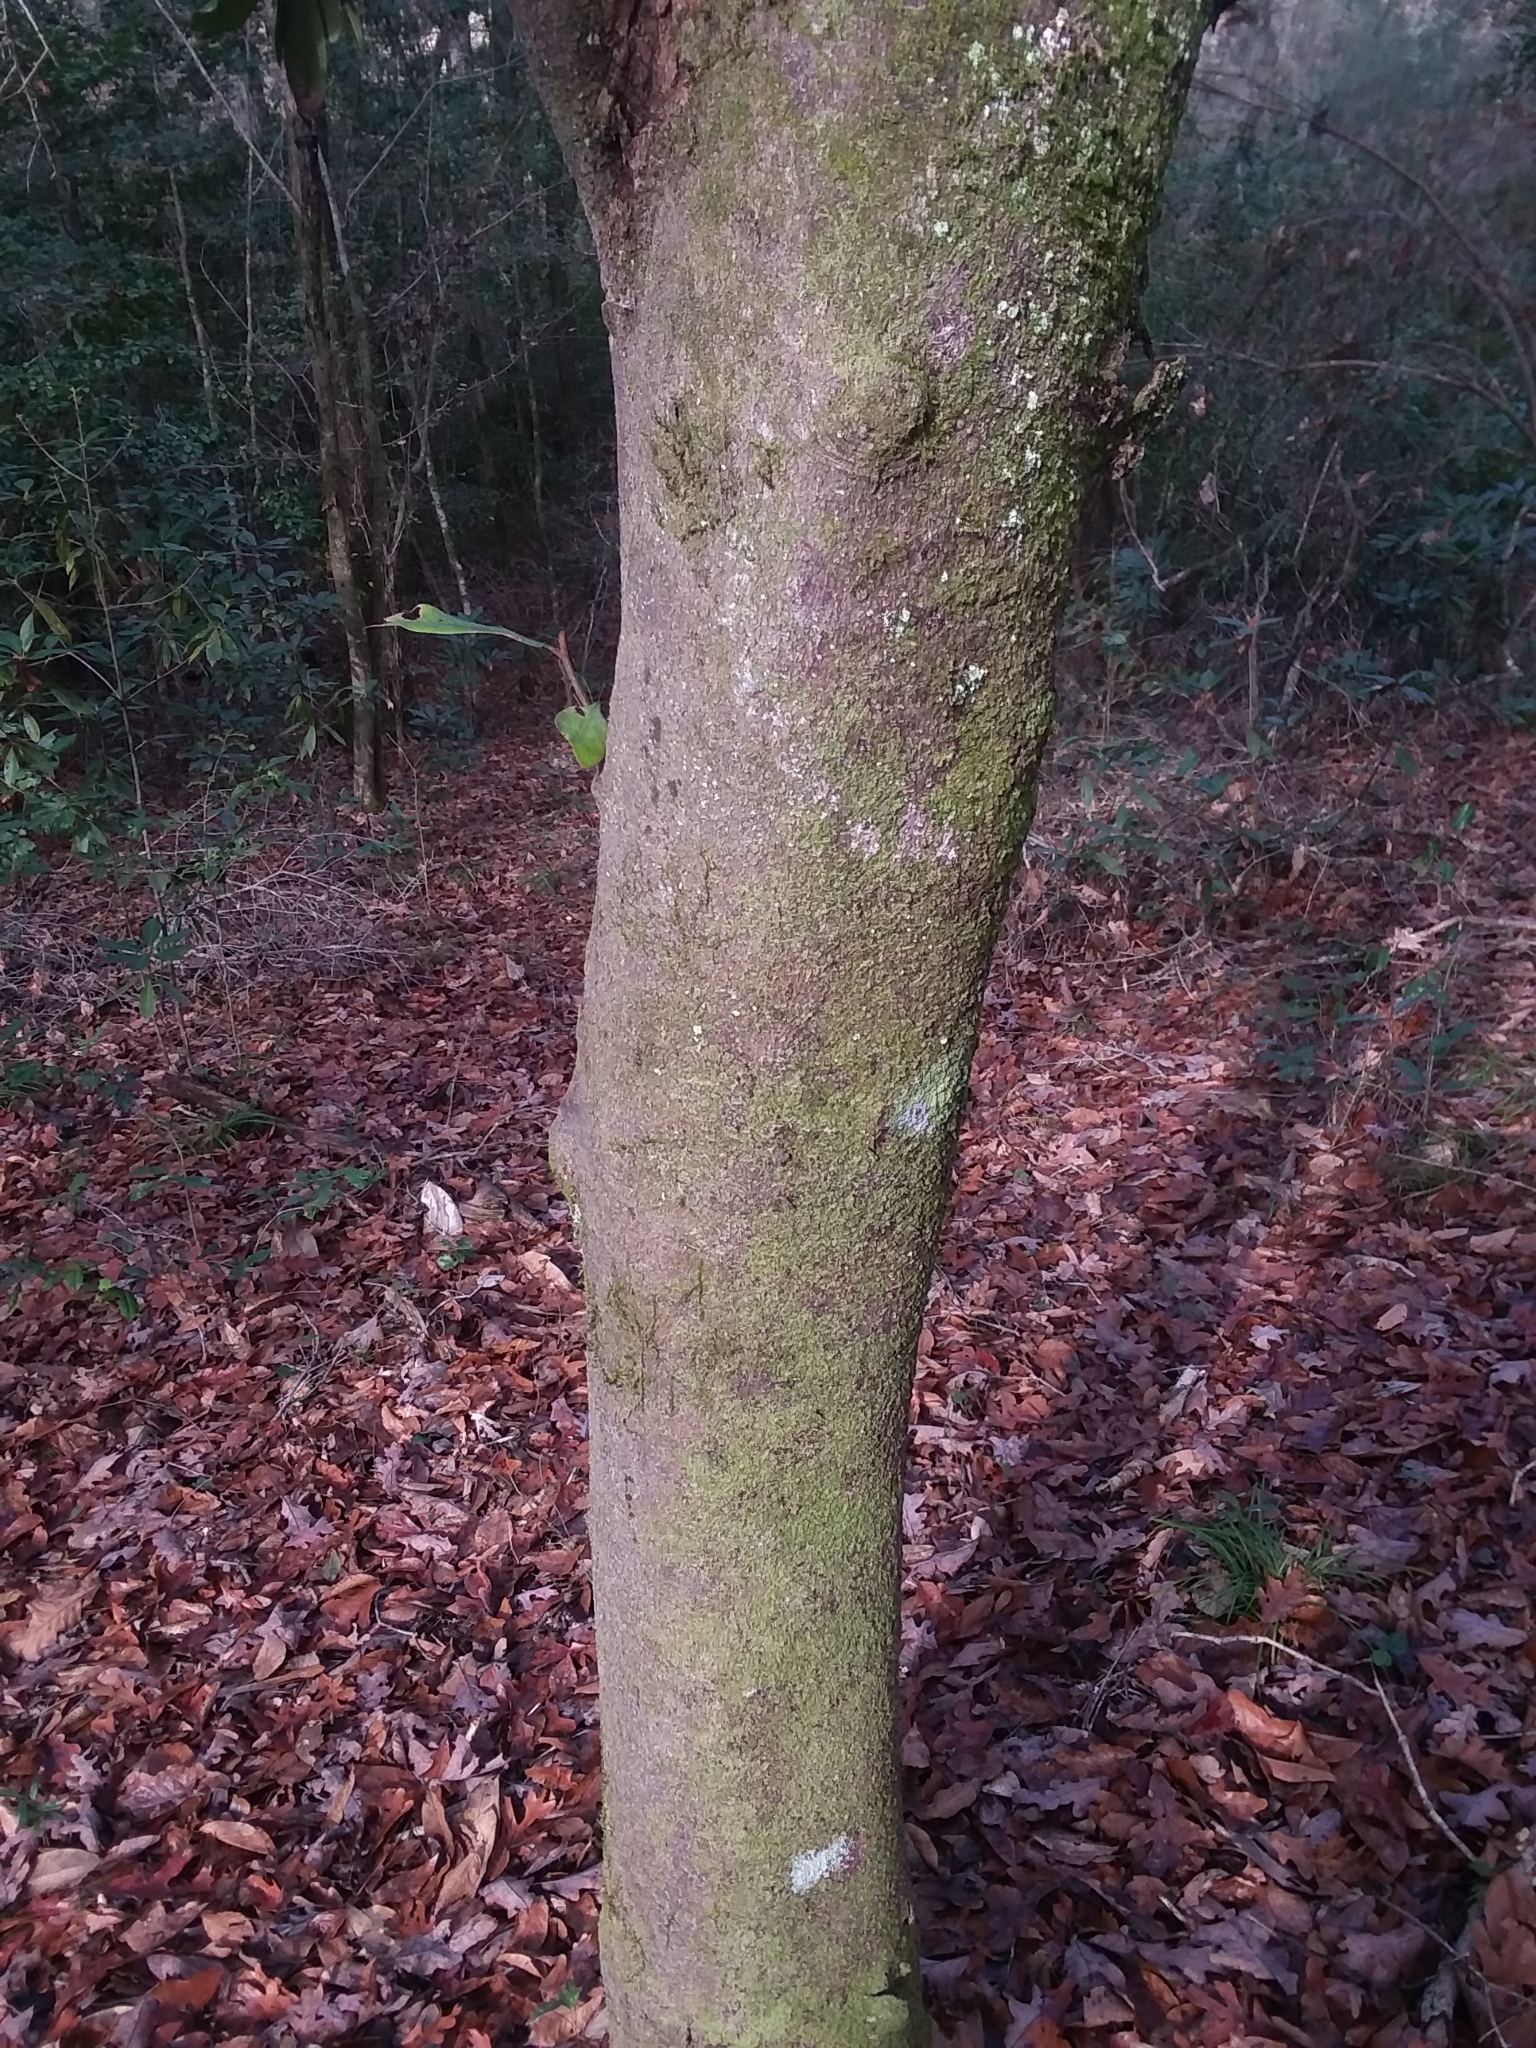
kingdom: Plantae
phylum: Tracheophyta
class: Magnoliopsida
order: Magnoliales
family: Magnoliaceae
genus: Magnolia
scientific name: Magnolia grandiflora
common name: Southern magnolia
